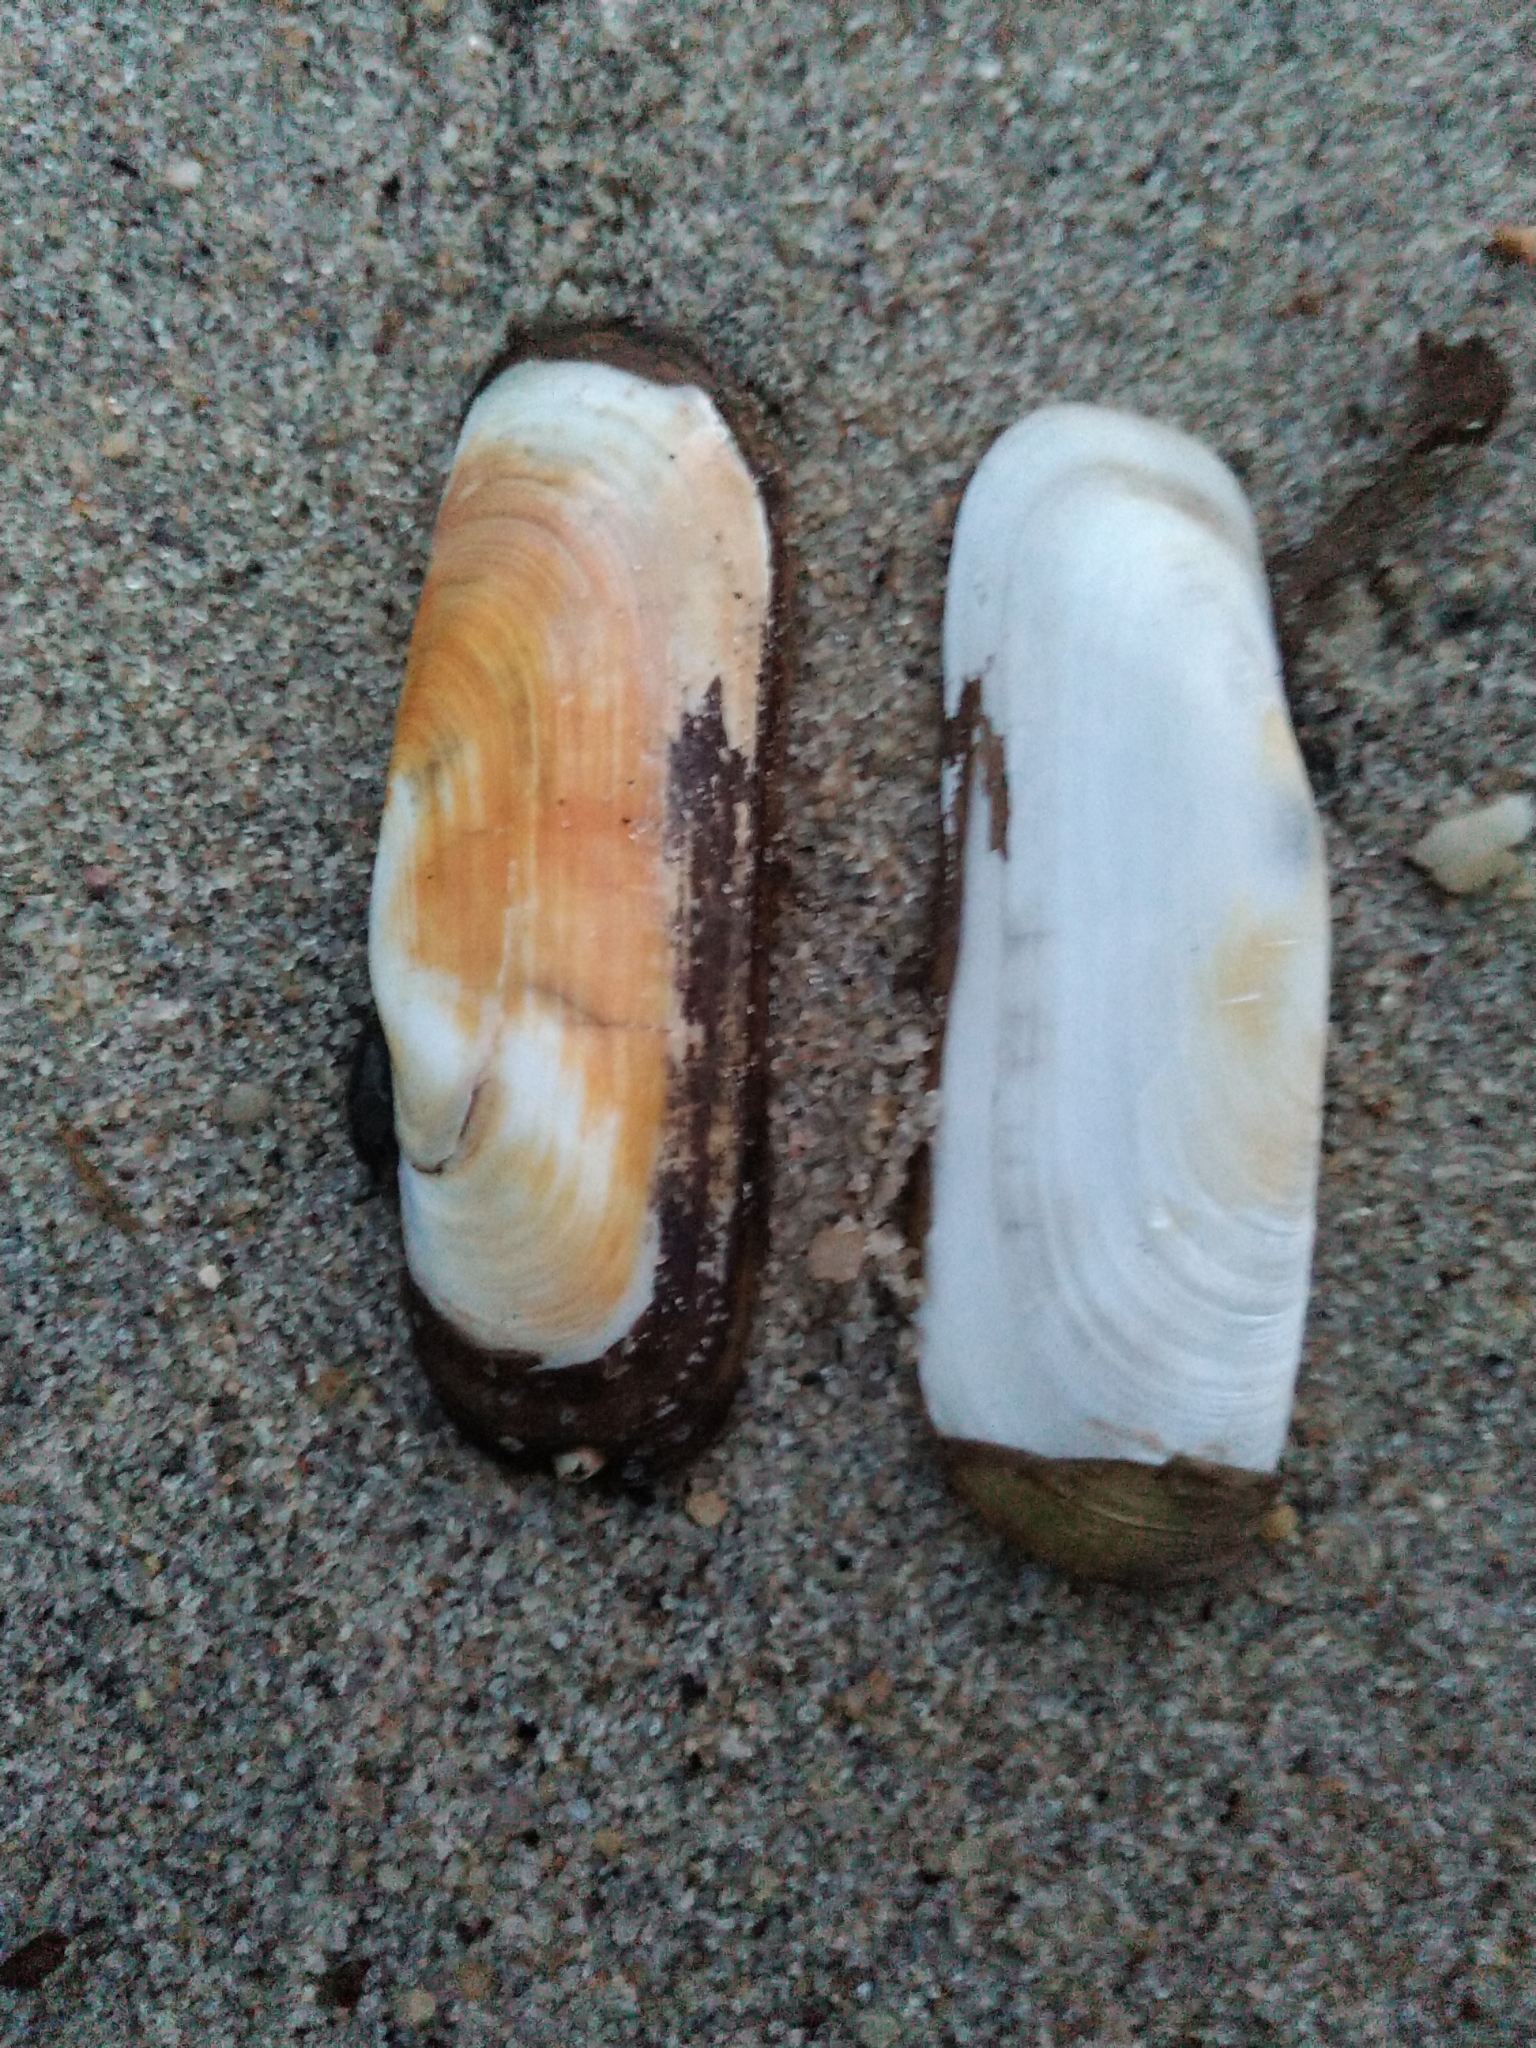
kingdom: Animalia
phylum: Mollusca
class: Bivalvia
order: Cardiida
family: Solecurtidae
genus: Tagelus
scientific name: Tagelus plebeius
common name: Stout tagelus
